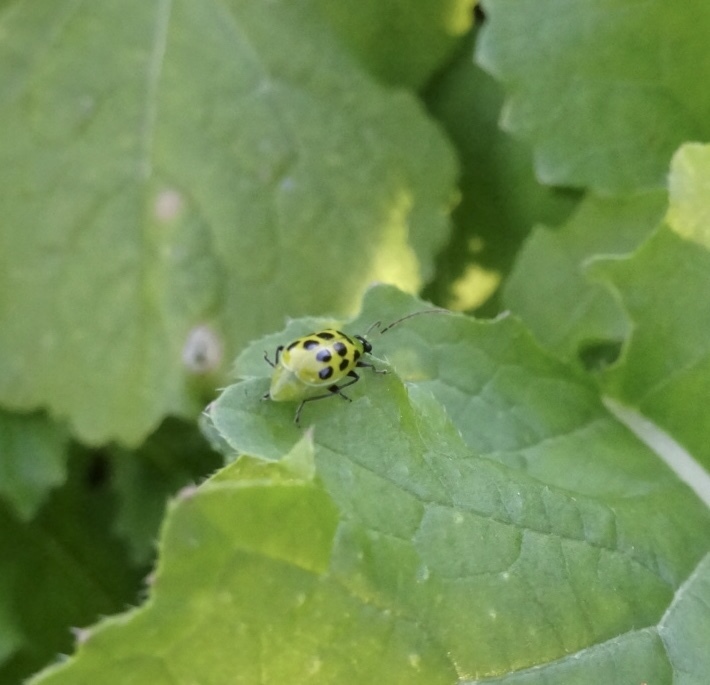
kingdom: Animalia
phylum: Arthropoda
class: Insecta
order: Coleoptera
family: Chrysomelidae
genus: Diabrotica
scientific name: Diabrotica undecimpunctata
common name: Spotted cucumber beetle
